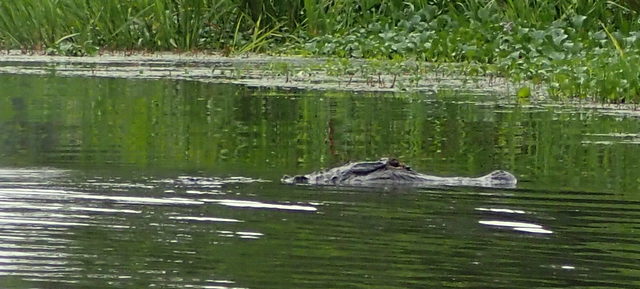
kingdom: Animalia
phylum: Chordata
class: Crocodylia
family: Alligatoridae
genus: Alligator
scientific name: Alligator mississippiensis
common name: American alligator
